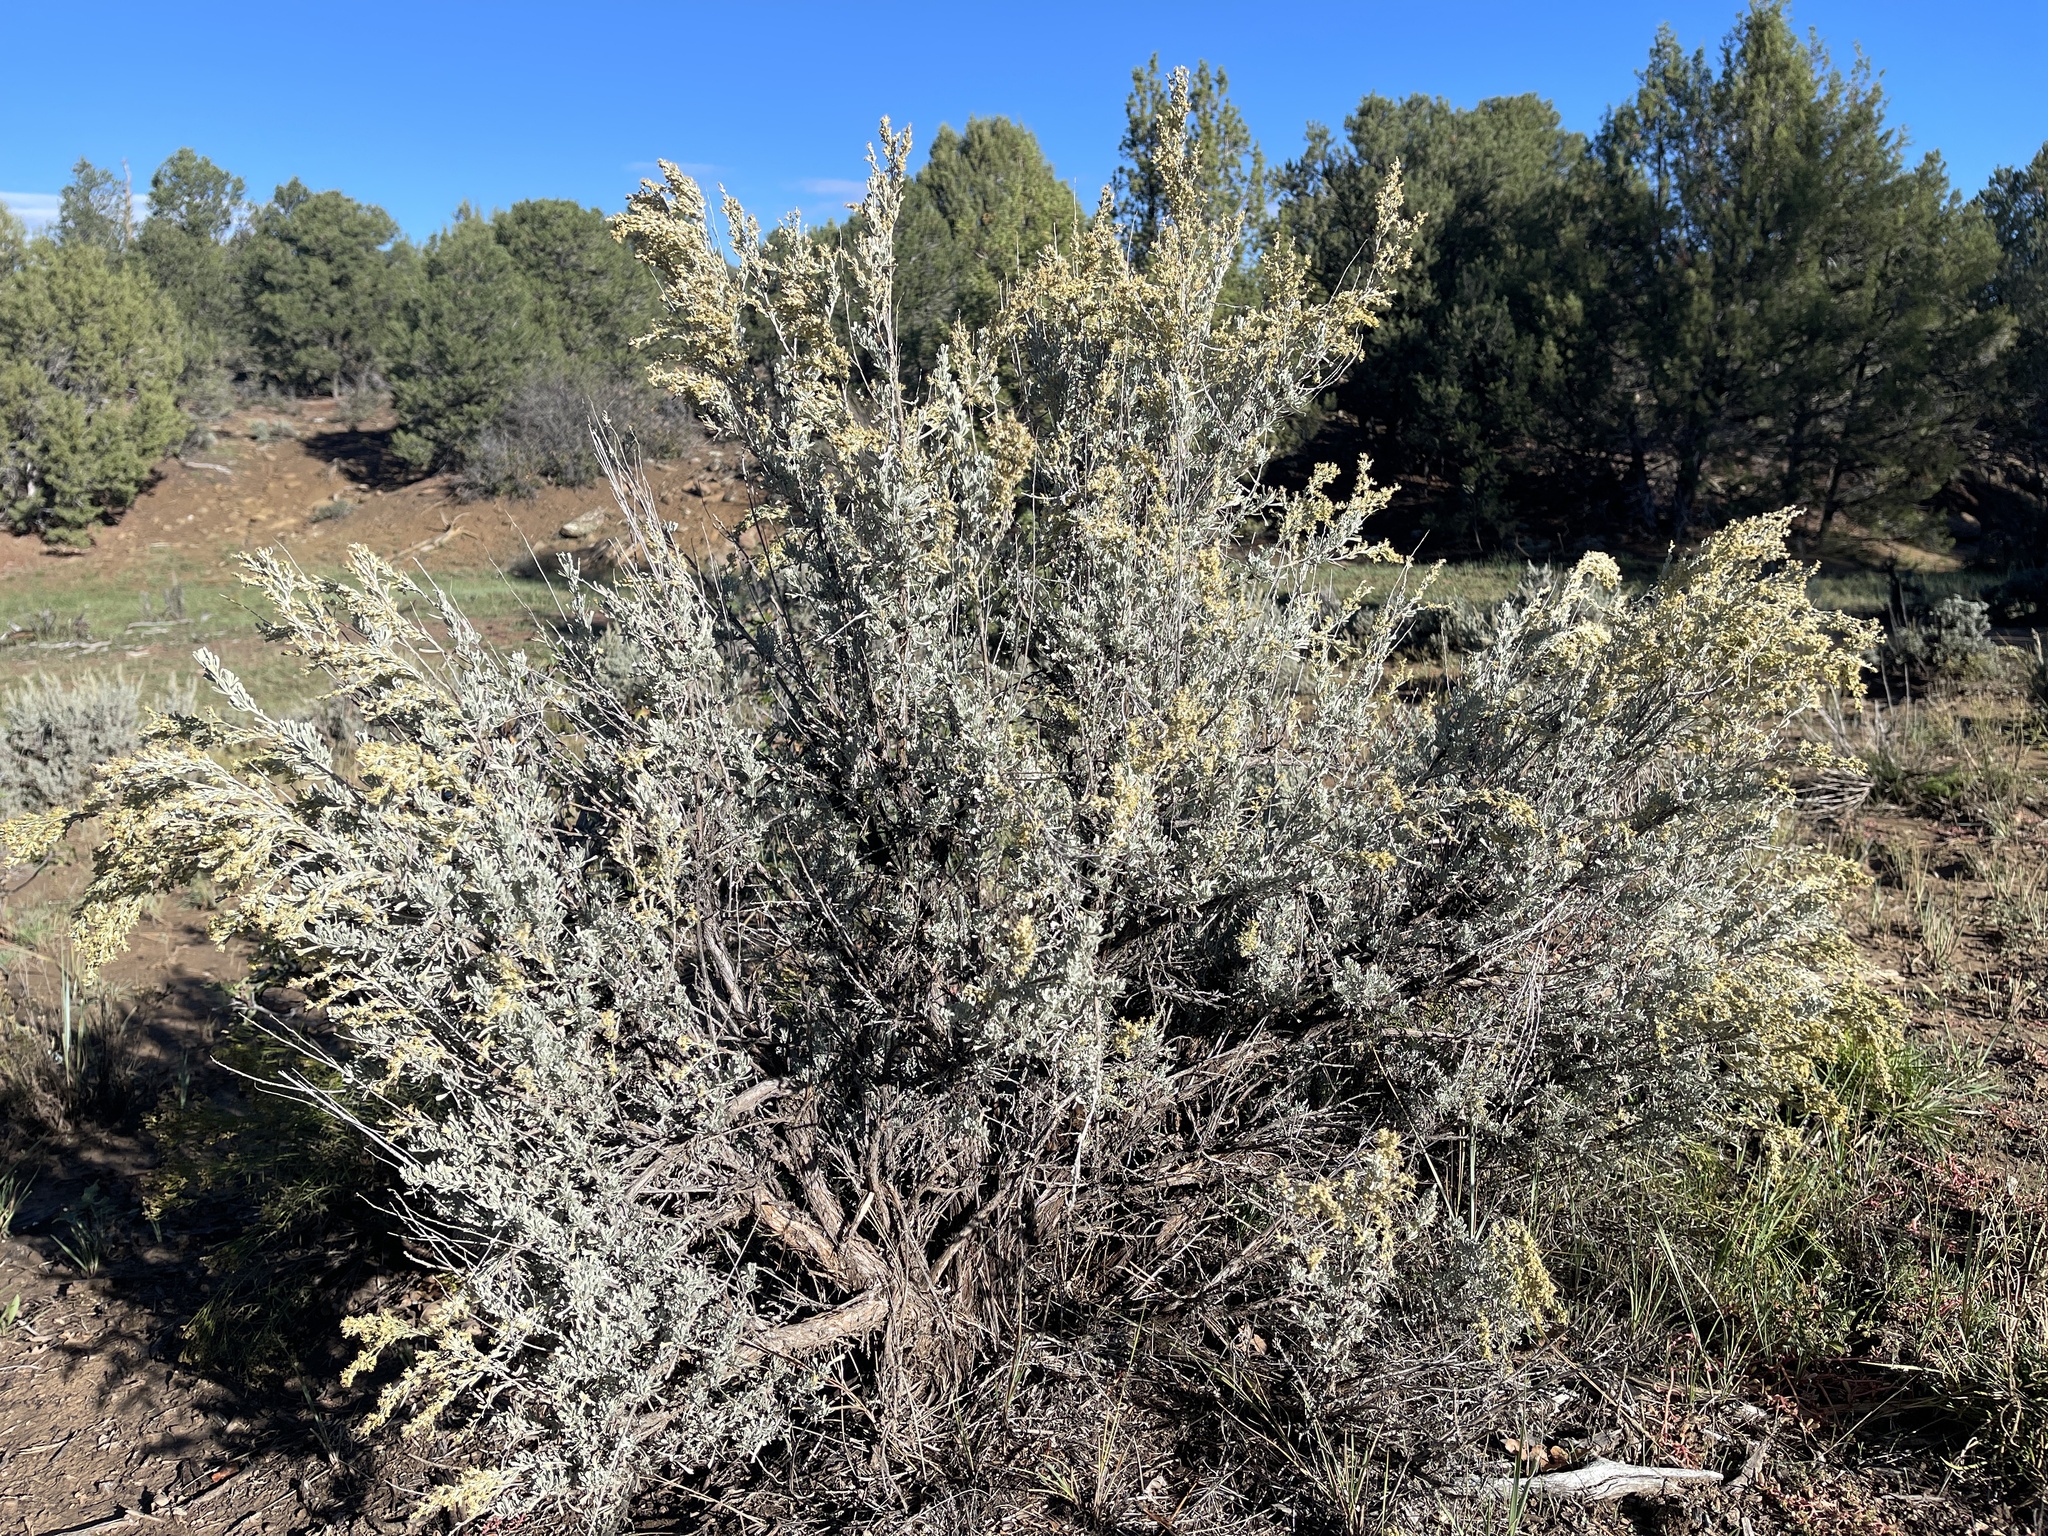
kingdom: Plantae
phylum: Tracheophyta
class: Magnoliopsida
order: Asterales
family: Asteraceae
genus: Artemisia
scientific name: Artemisia tridentata
